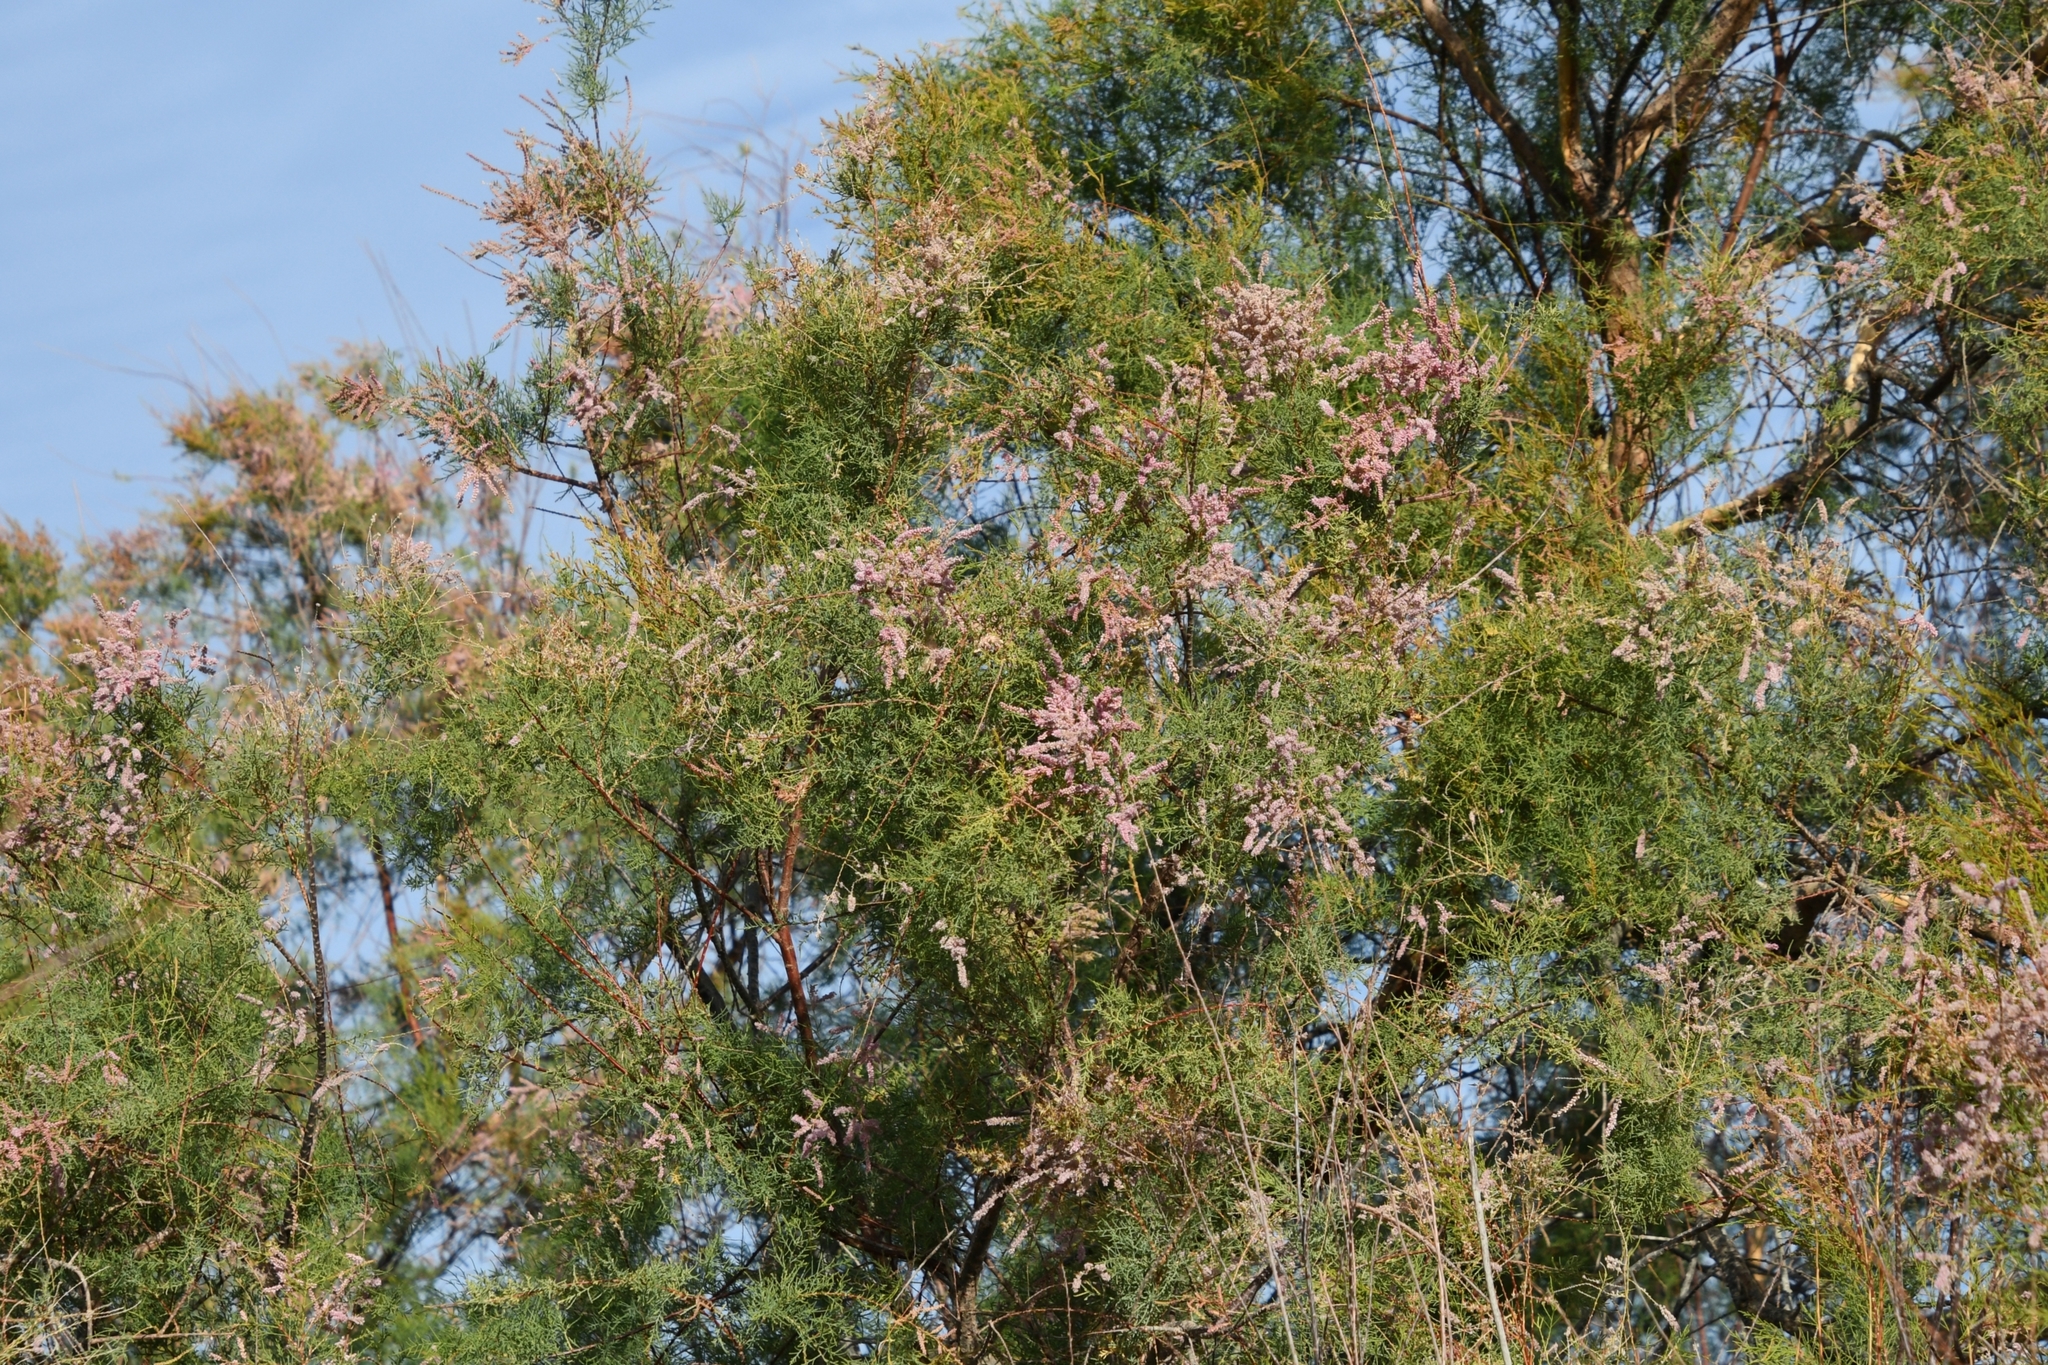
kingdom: Plantae
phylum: Tracheophyta
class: Magnoliopsida
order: Caryophyllales
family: Tamaricaceae
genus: Tamarix
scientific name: Tamarix
